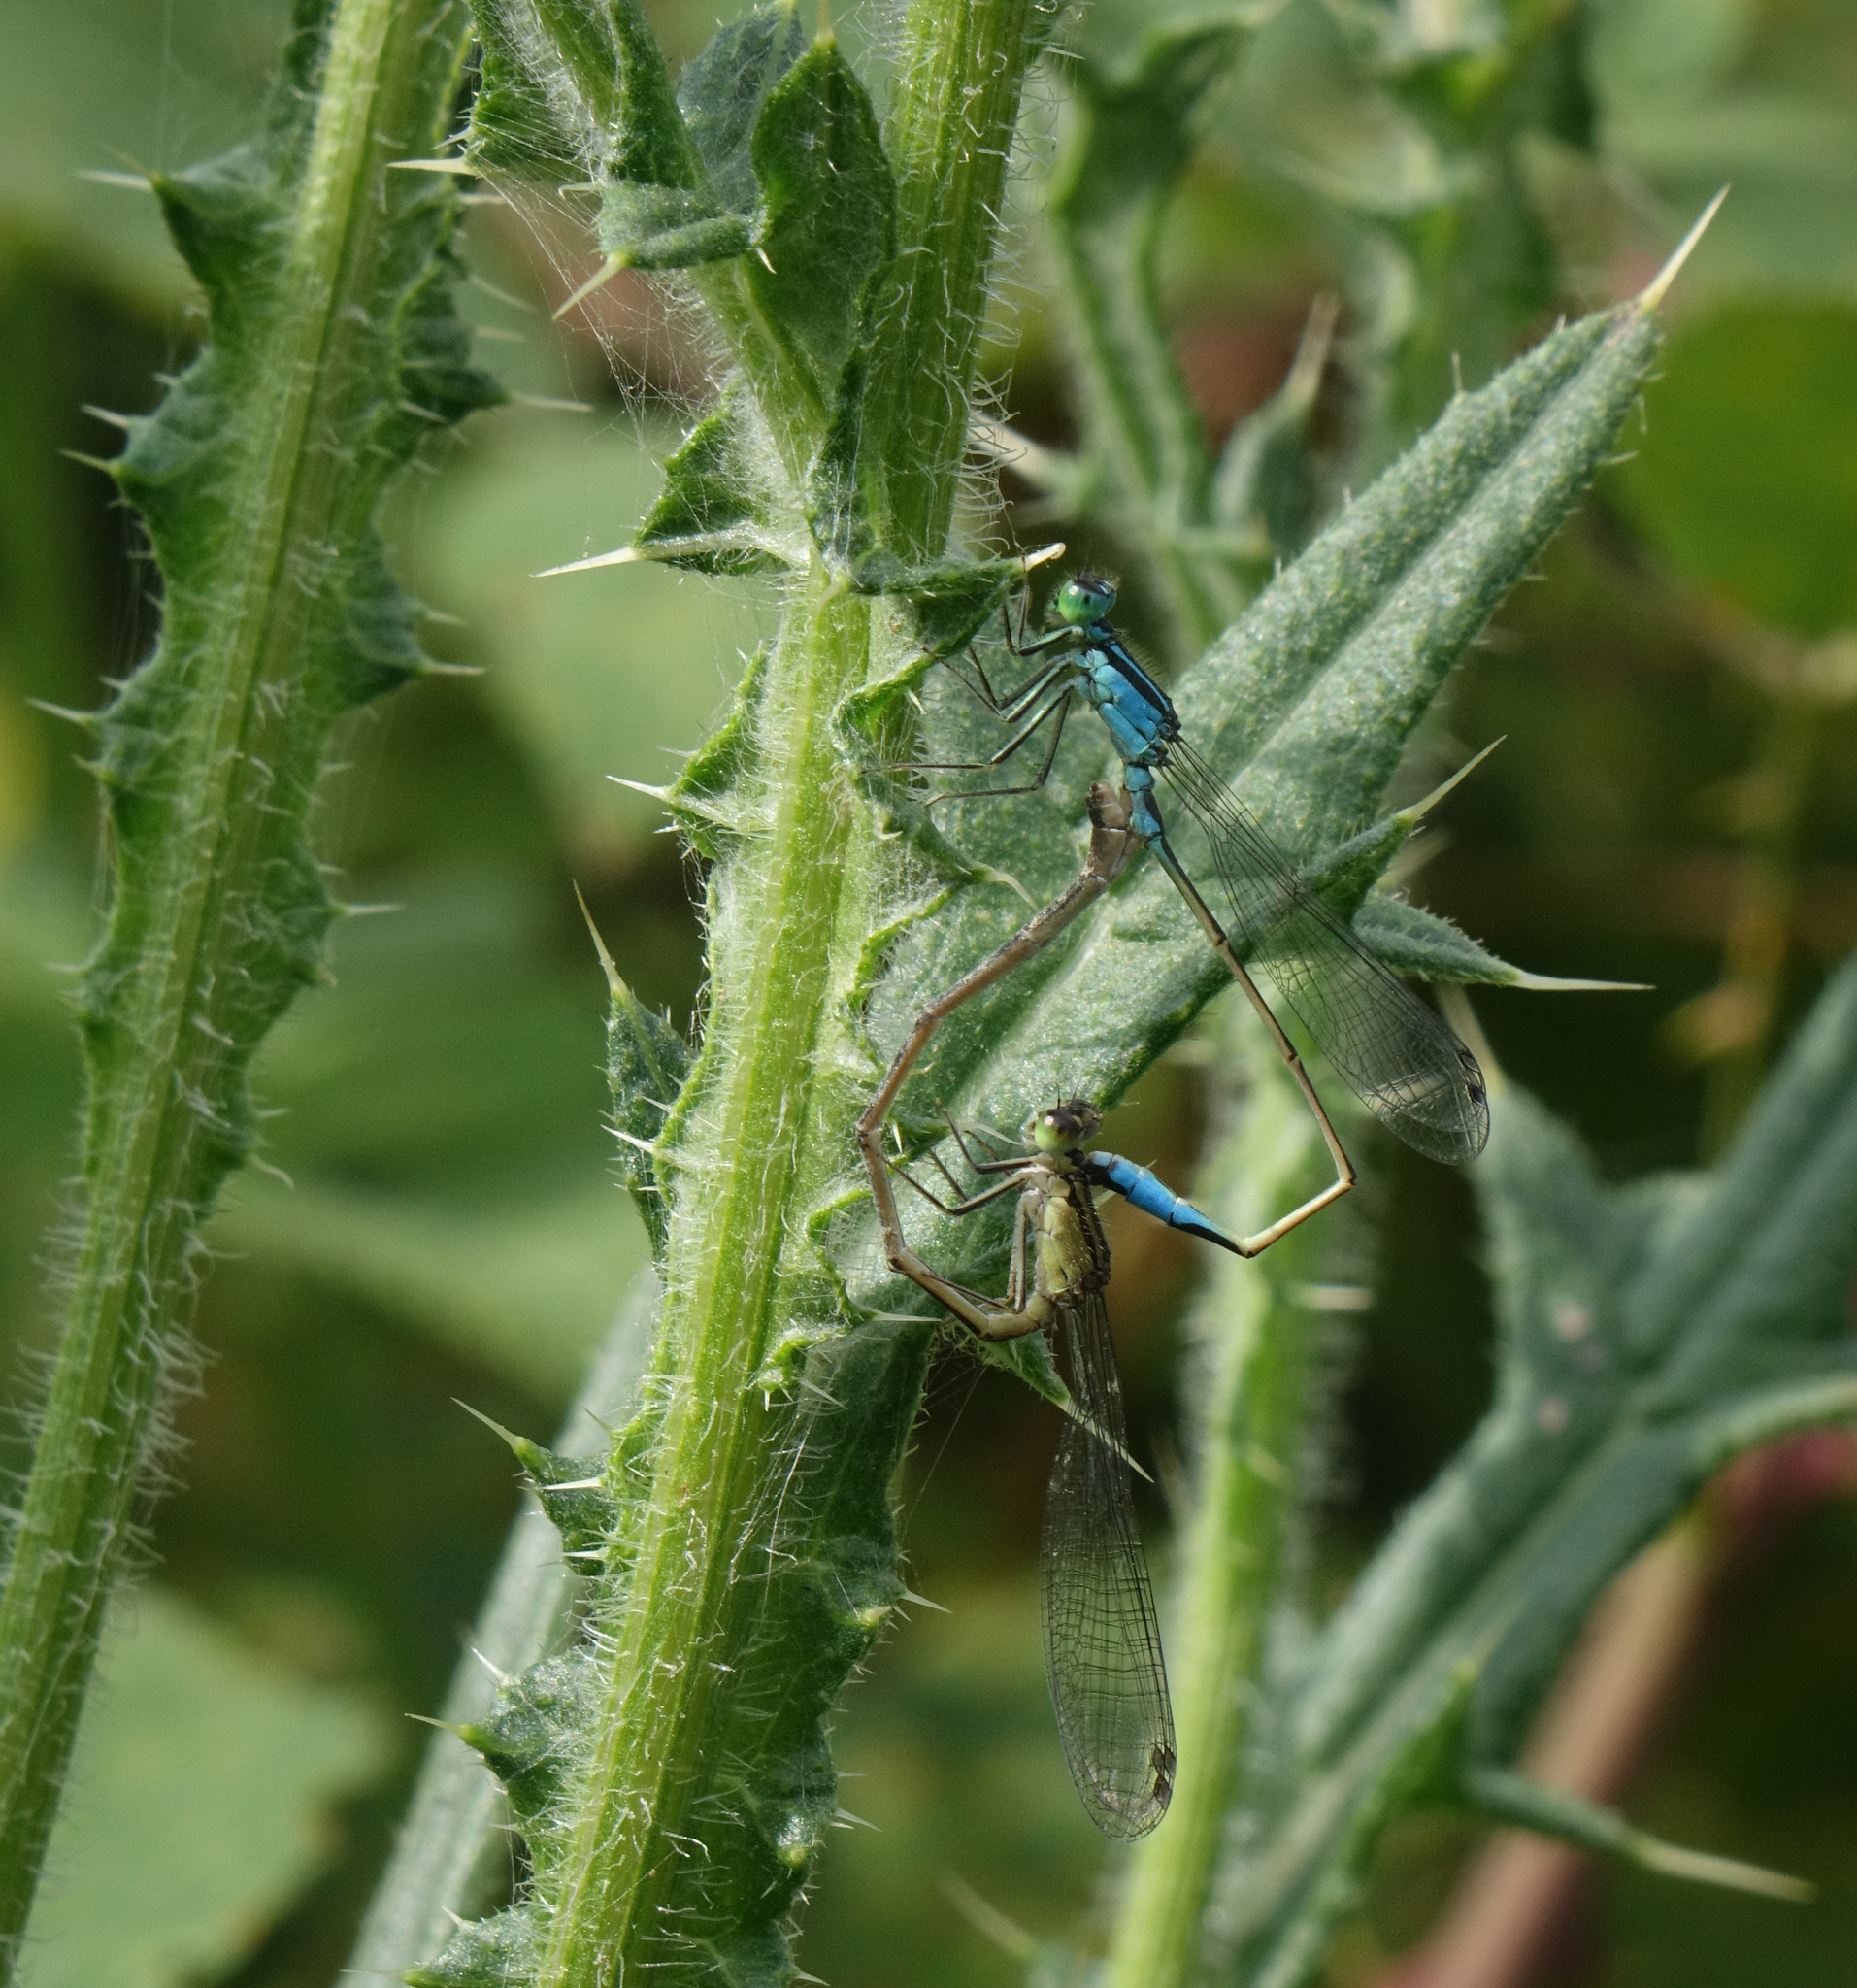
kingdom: Animalia
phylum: Arthropoda
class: Insecta
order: Odonata
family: Coenagrionidae
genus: Ischnura
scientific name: Ischnura elegans
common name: Blue-tailed damselfly
